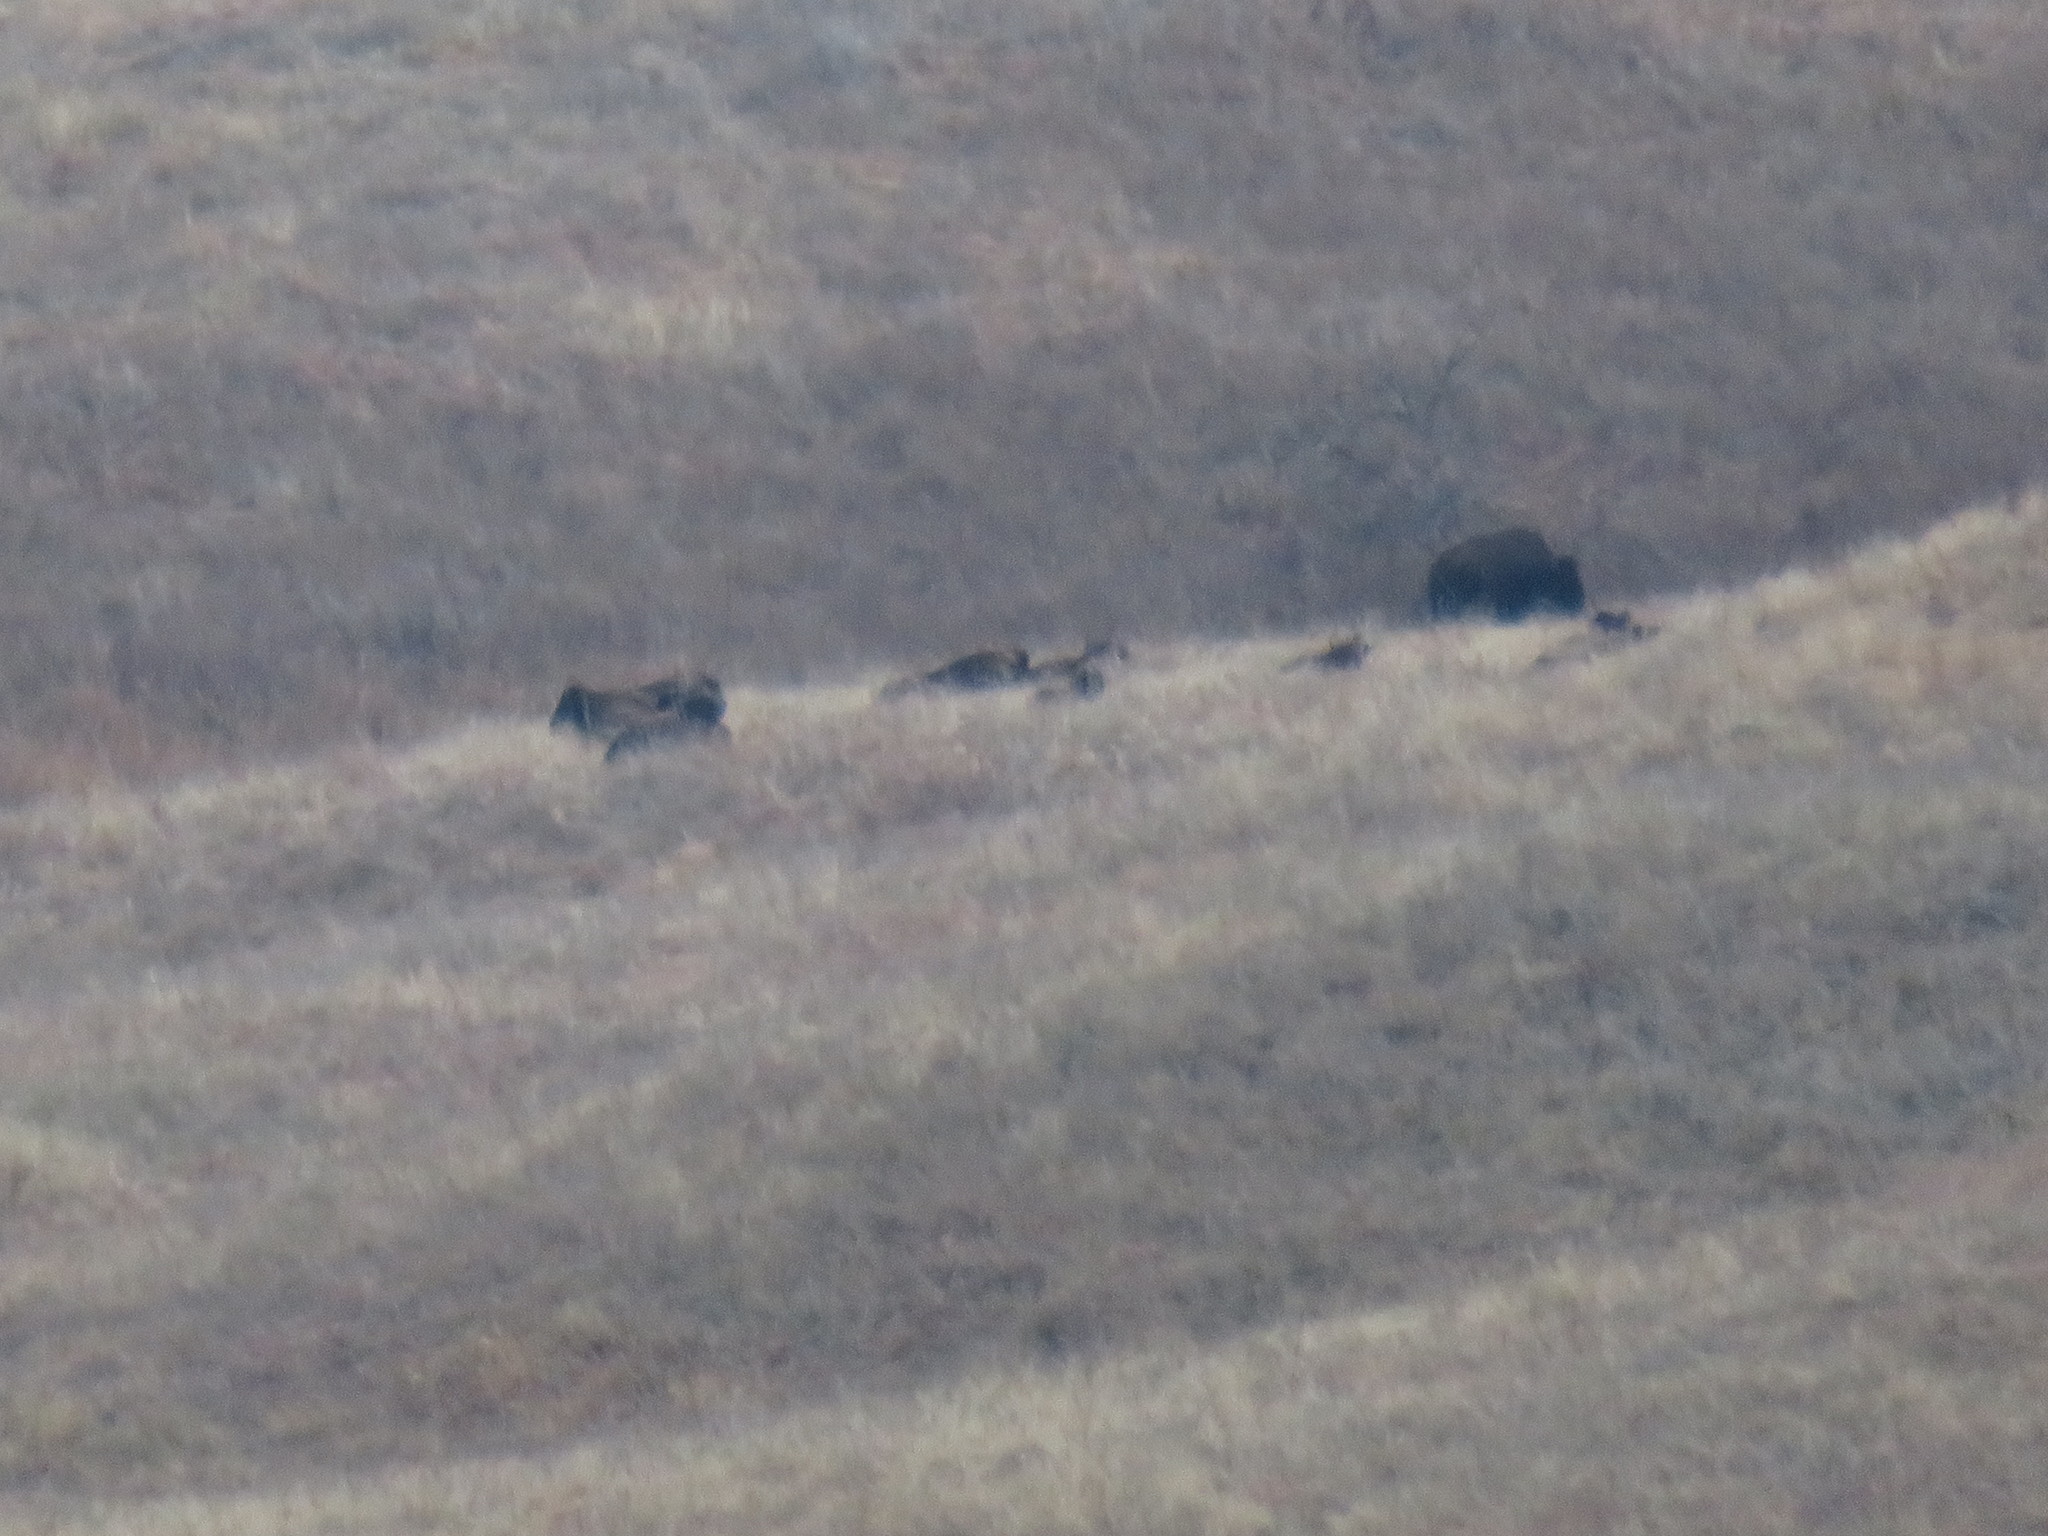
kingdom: Animalia
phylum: Chordata
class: Mammalia
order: Artiodactyla
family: Bovidae
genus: Bison
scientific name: Bison bison
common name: American bison
